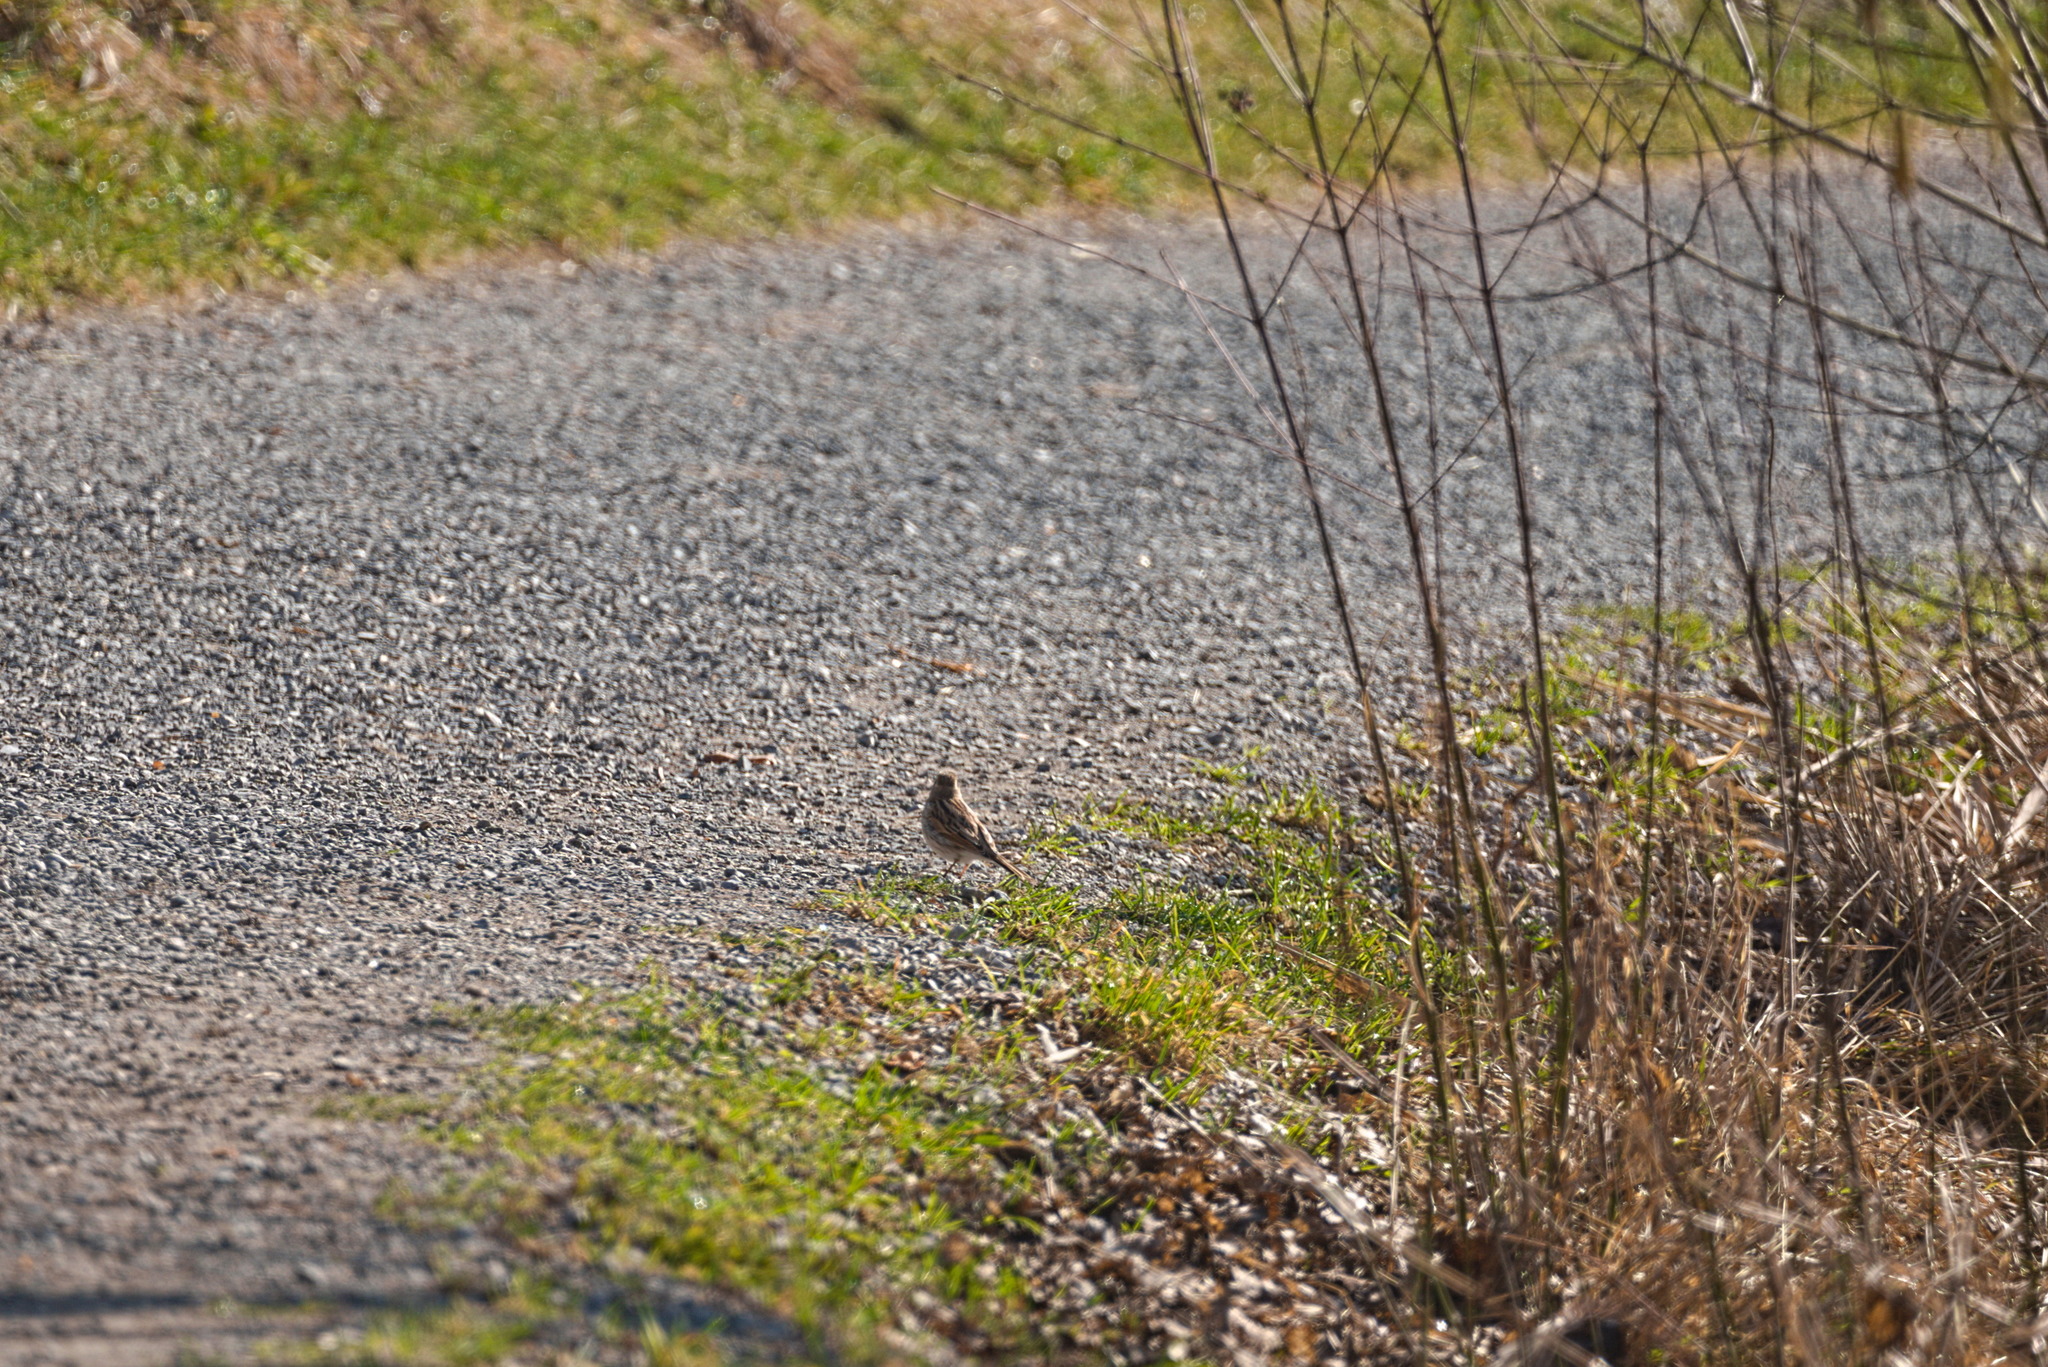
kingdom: Animalia
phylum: Chordata
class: Aves
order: Passeriformes
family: Emberizidae
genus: Emberiza
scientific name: Emberiza schoeniclus
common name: Reed bunting
